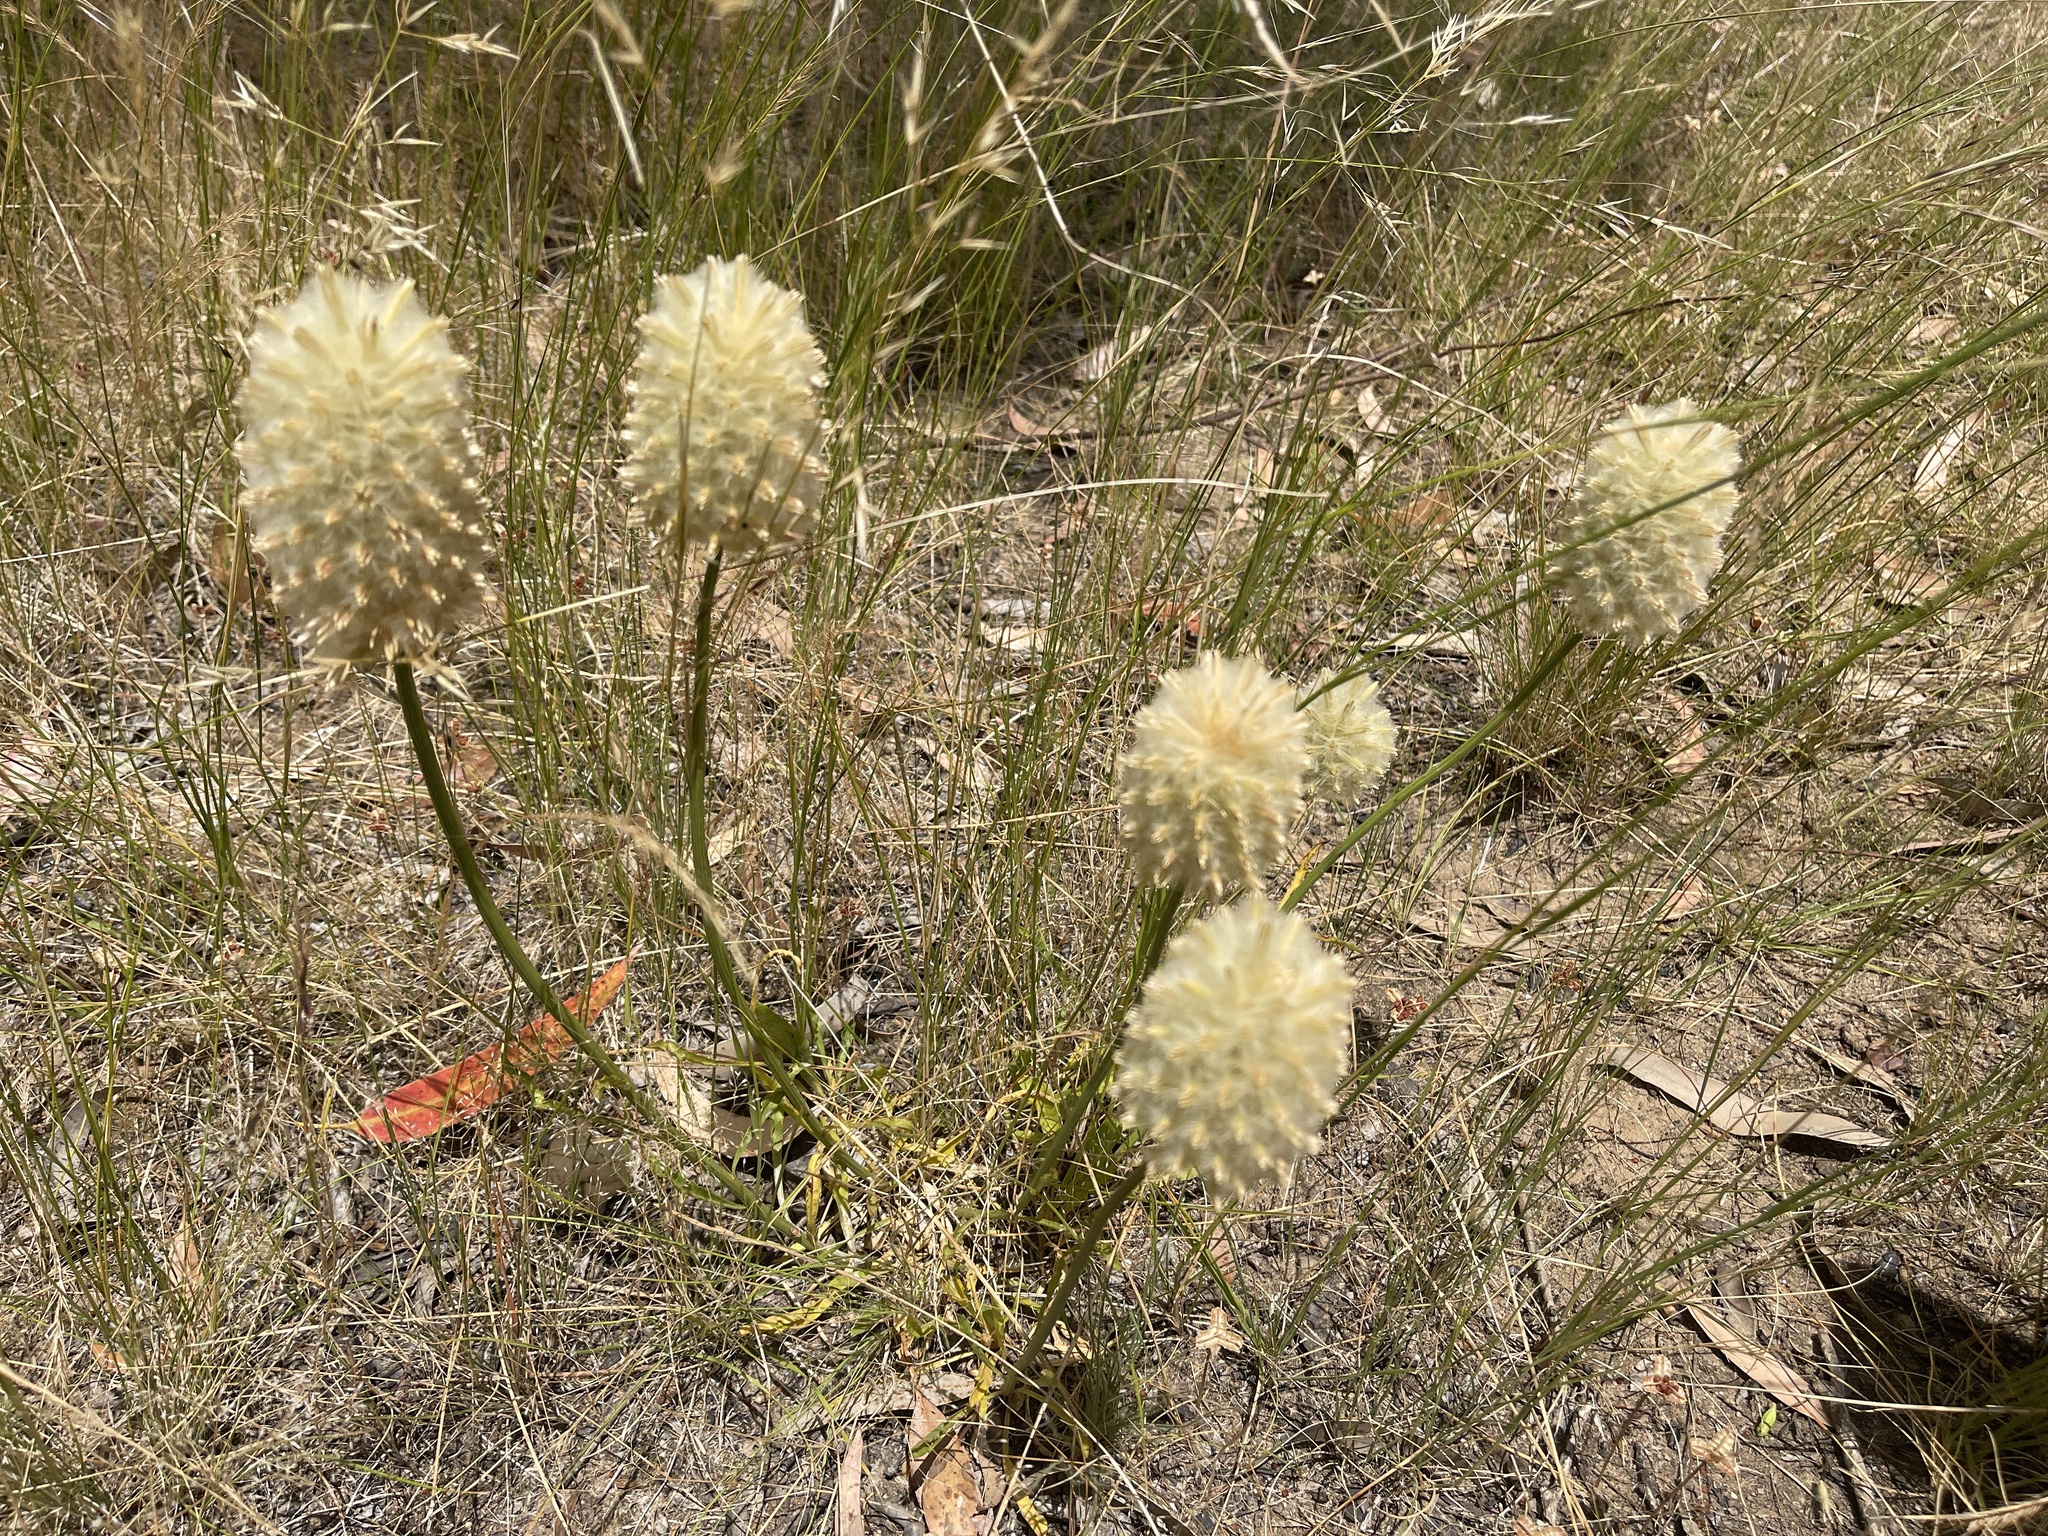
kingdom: Plantae
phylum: Tracheophyta
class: Magnoliopsida
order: Caryophyllales
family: Amaranthaceae
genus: Ptilotus
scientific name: Ptilotus macrocephalus
